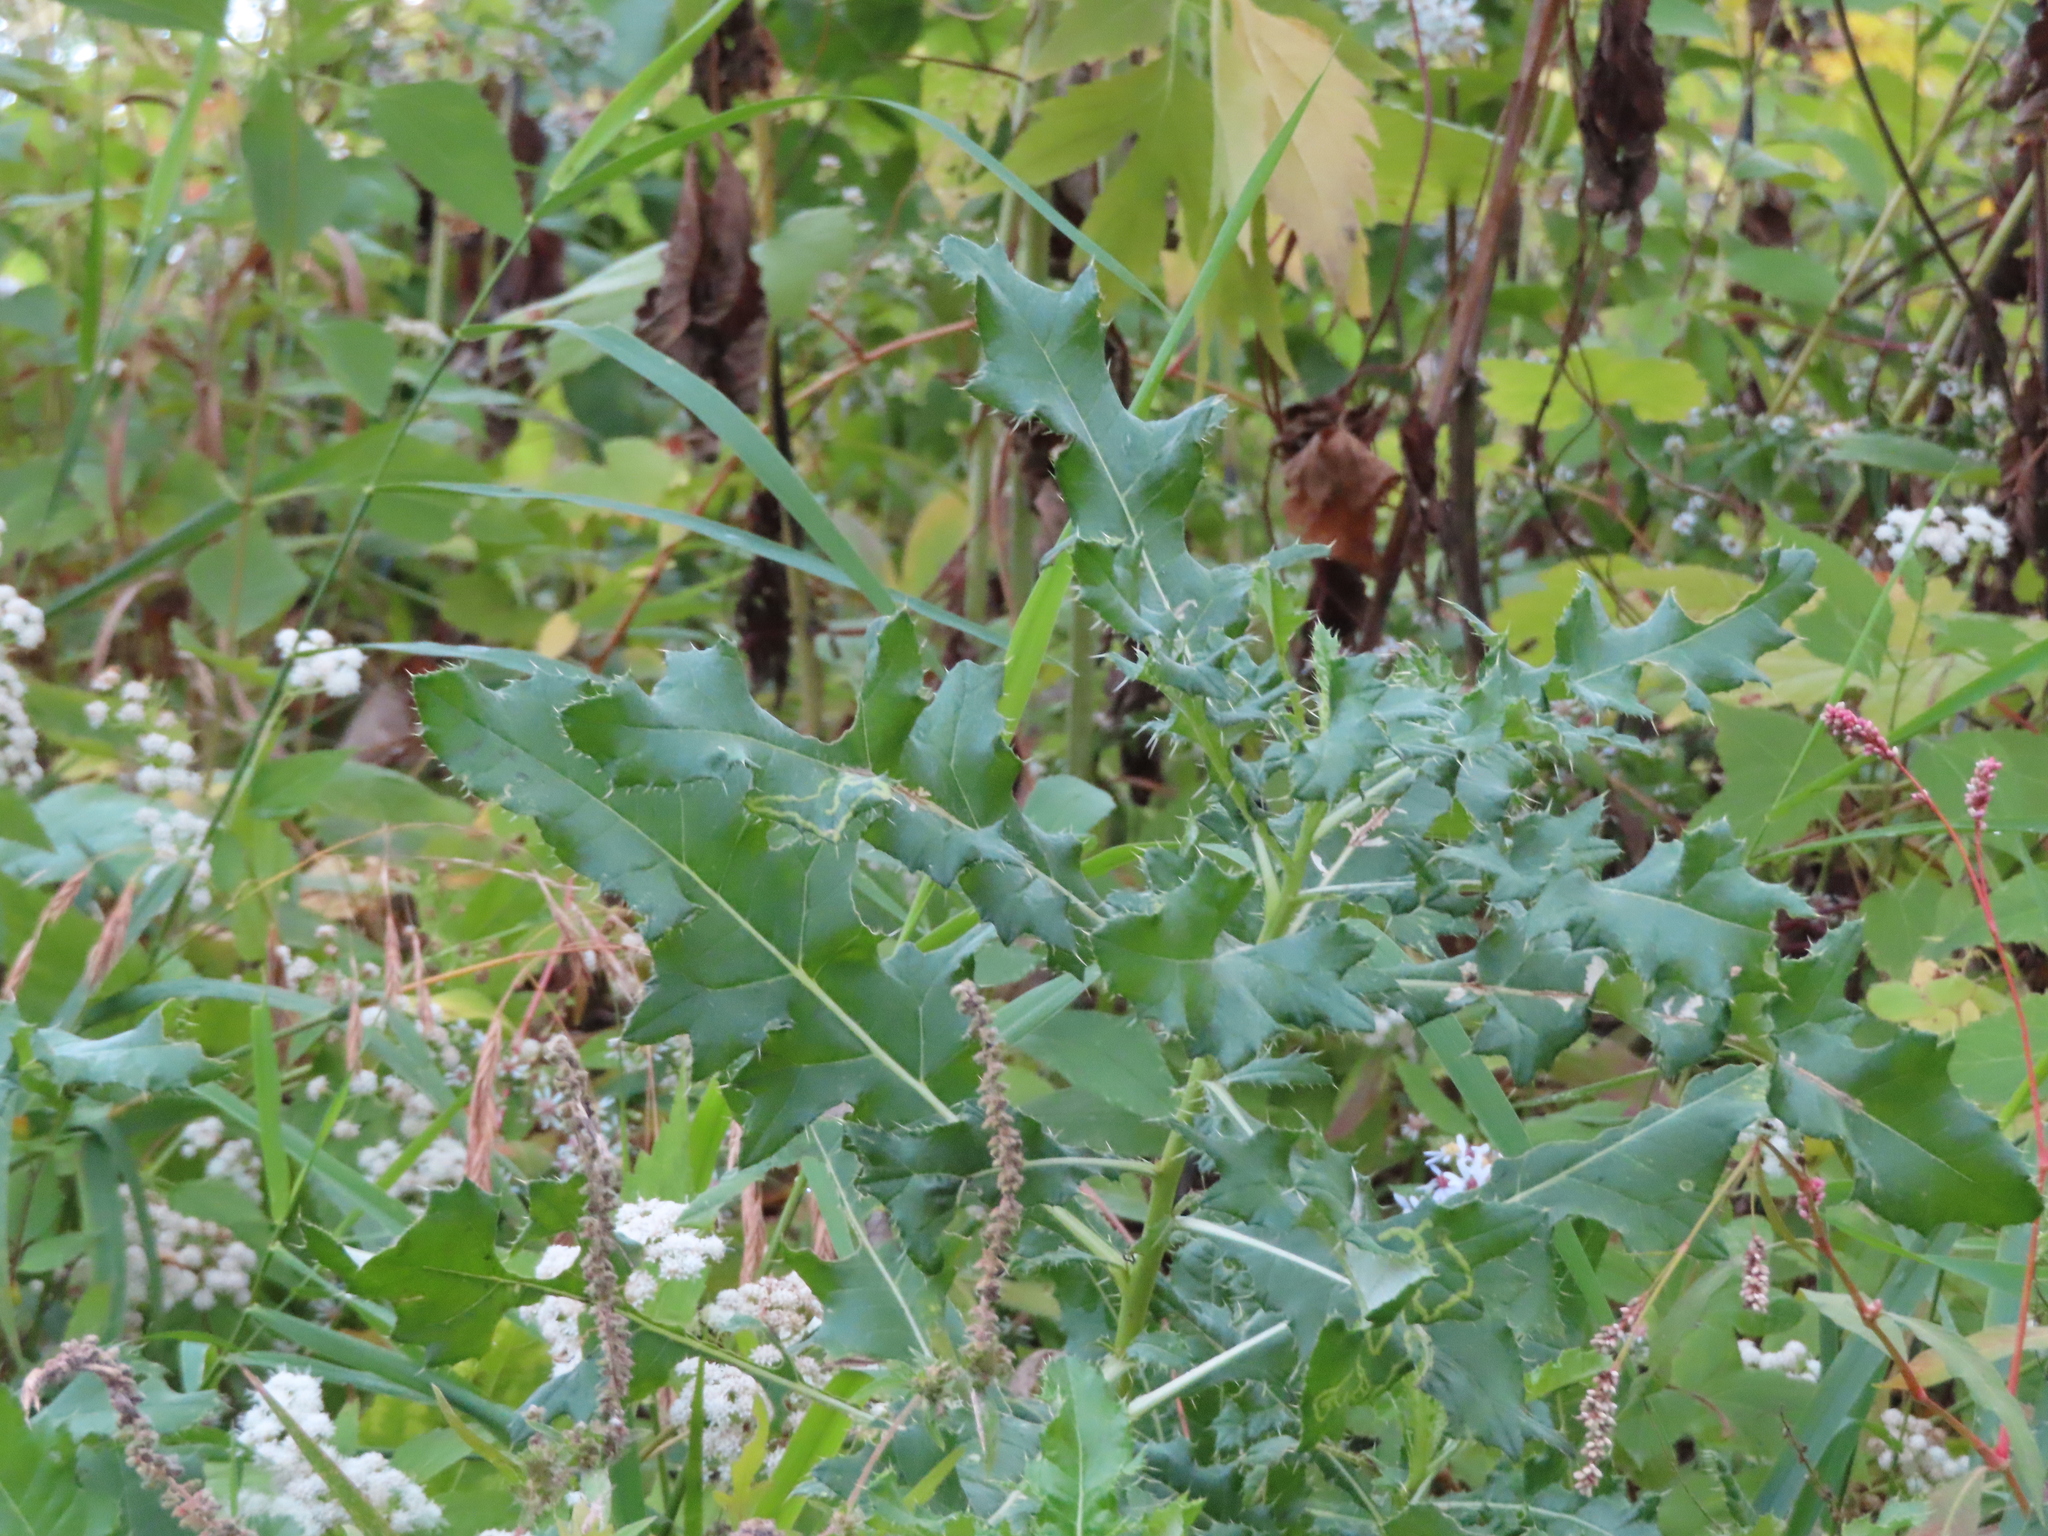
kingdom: Plantae
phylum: Tracheophyta
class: Magnoliopsida
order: Asterales
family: Asteraceae
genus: Cirsium
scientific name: Cirsium arvense
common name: Creeping thistle
